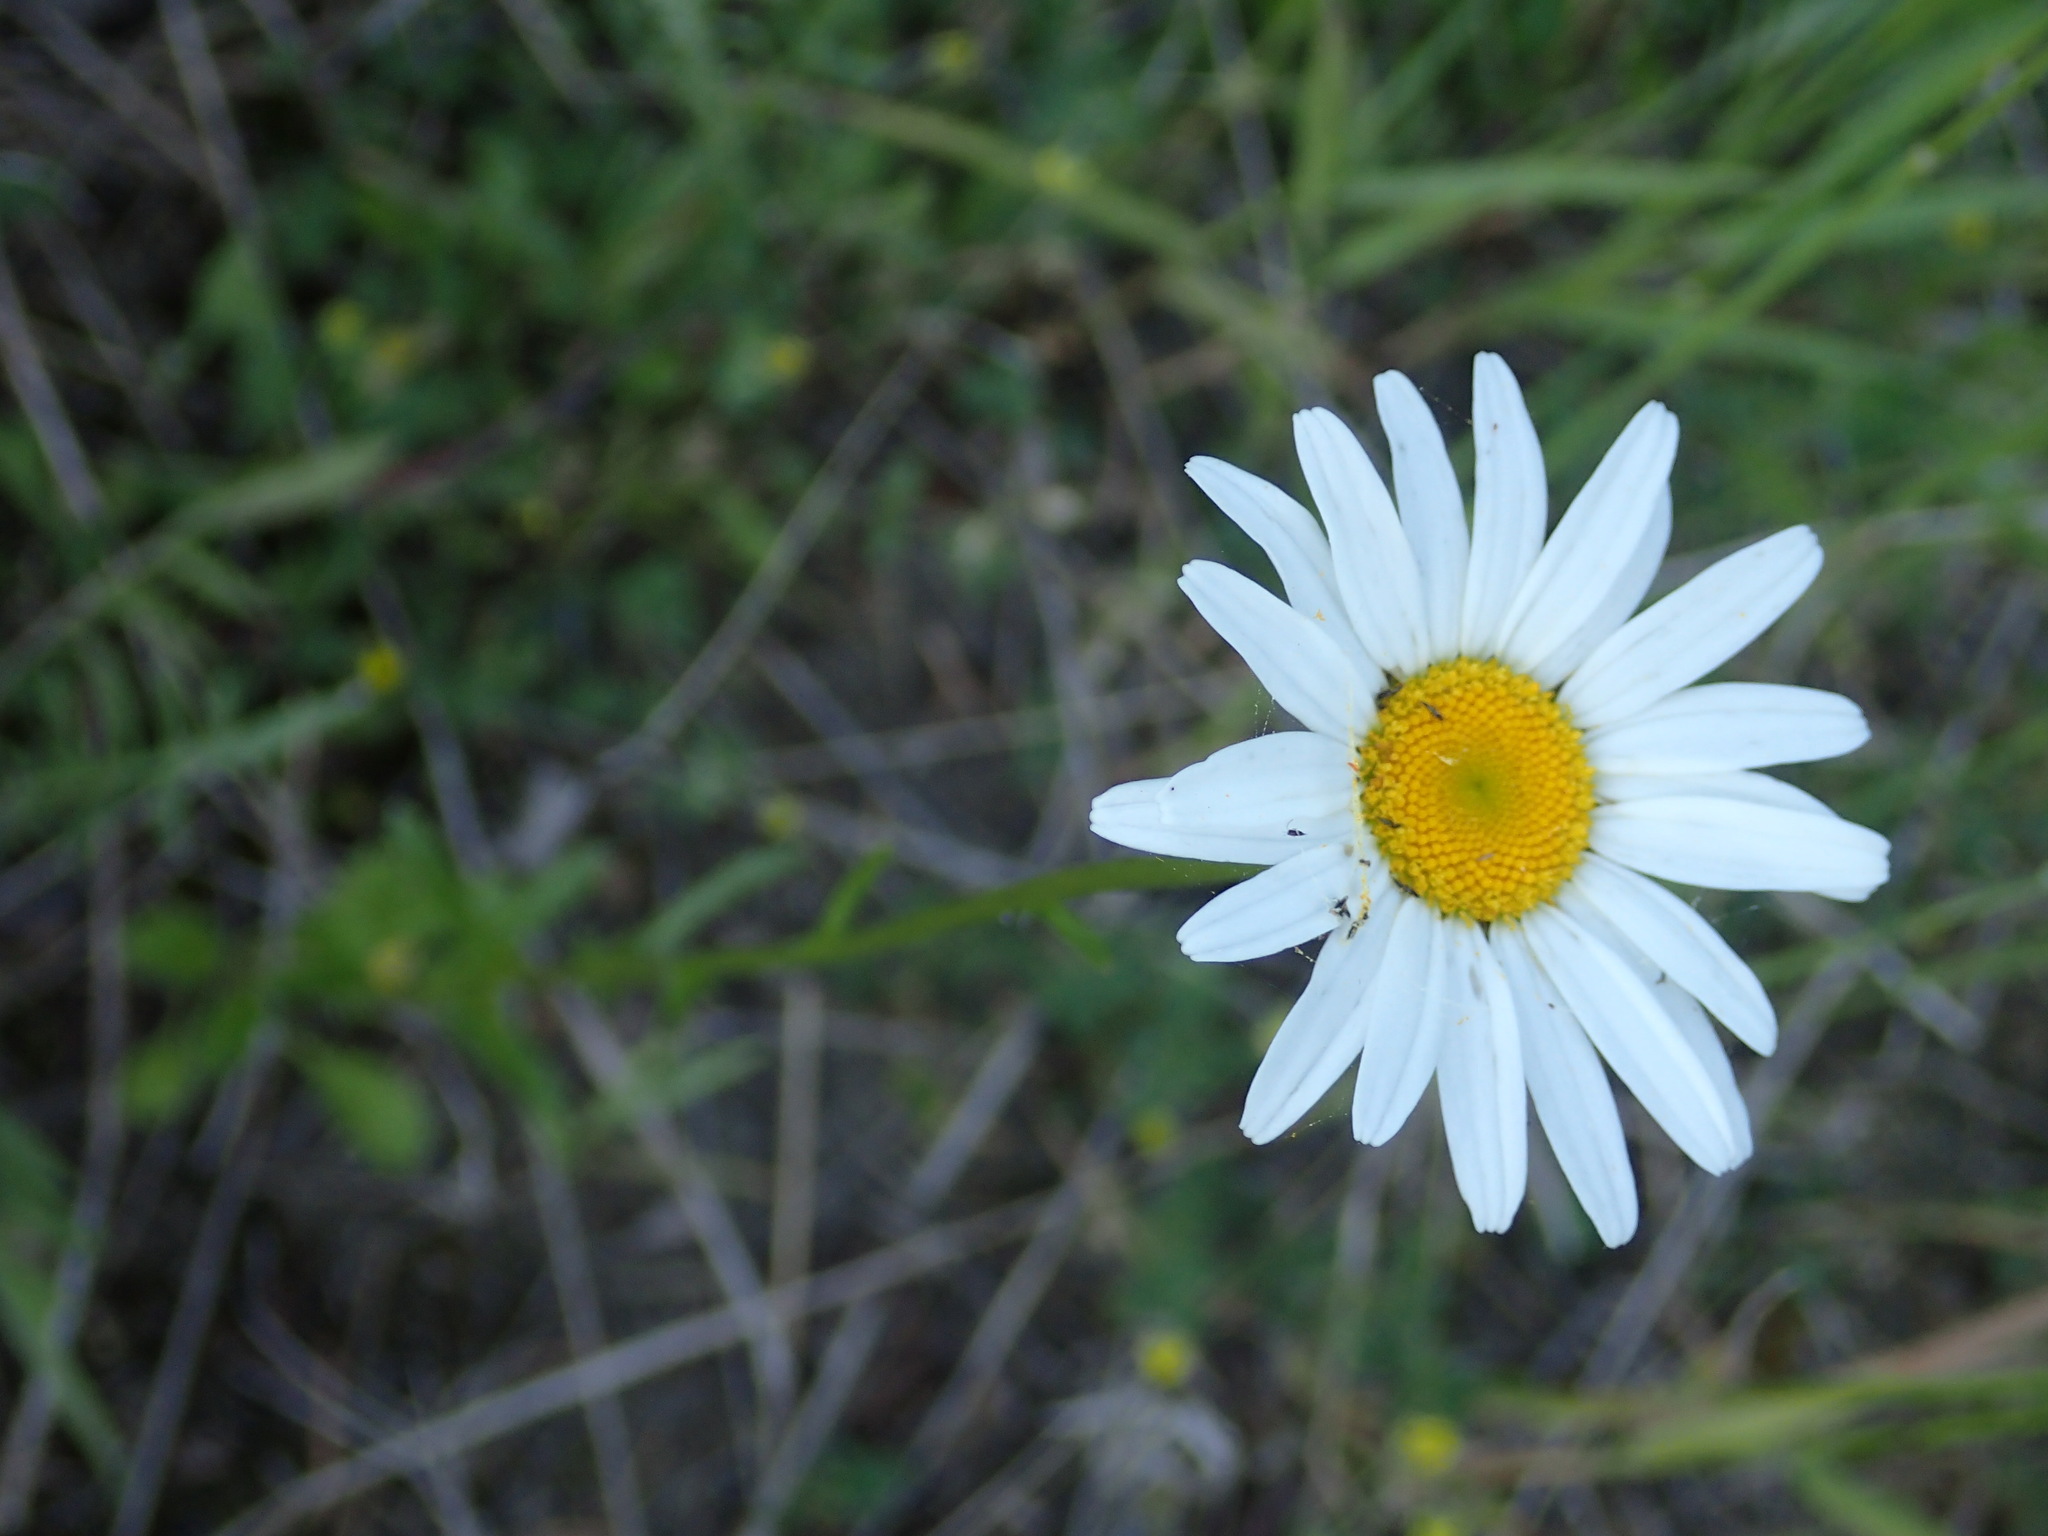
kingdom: Plantae
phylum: Tracheophyta
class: Magnoliopsida
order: Asterales
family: Asteraceae
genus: Leucanthemum
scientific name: Leucanthemum vulgare
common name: Oxeye daisy
